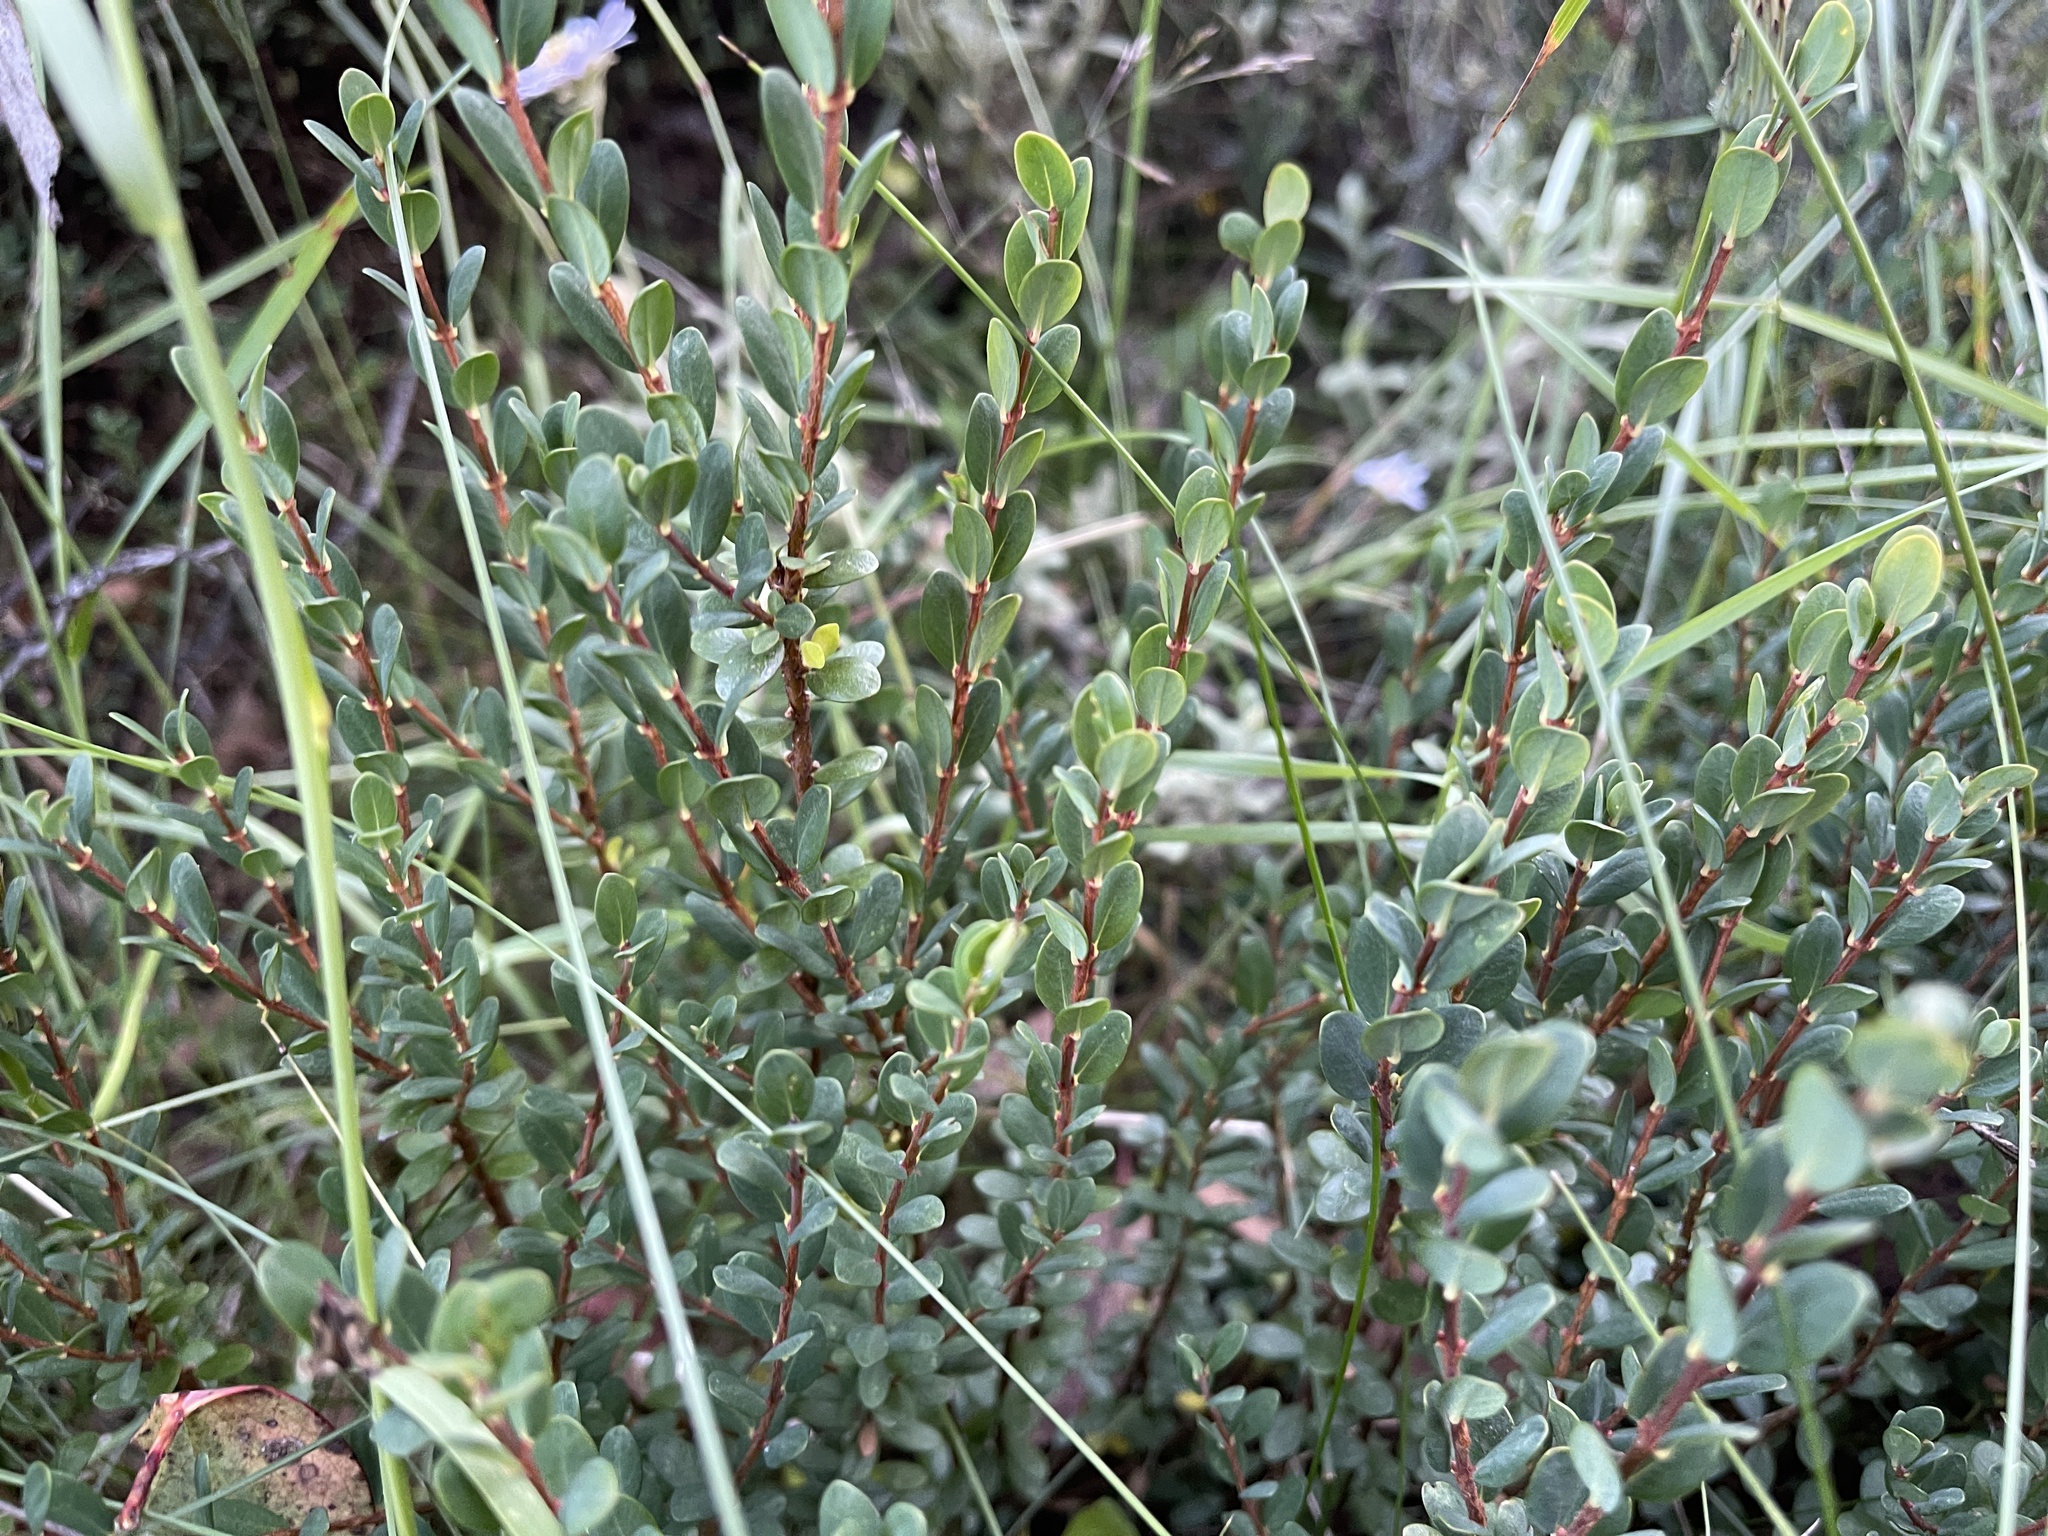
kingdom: Plantae
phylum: Tracheophyta
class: Magnoliopsida
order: Malvales
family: Thymelaeaceae
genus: Pimelea
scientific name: Pimelea axiflora
